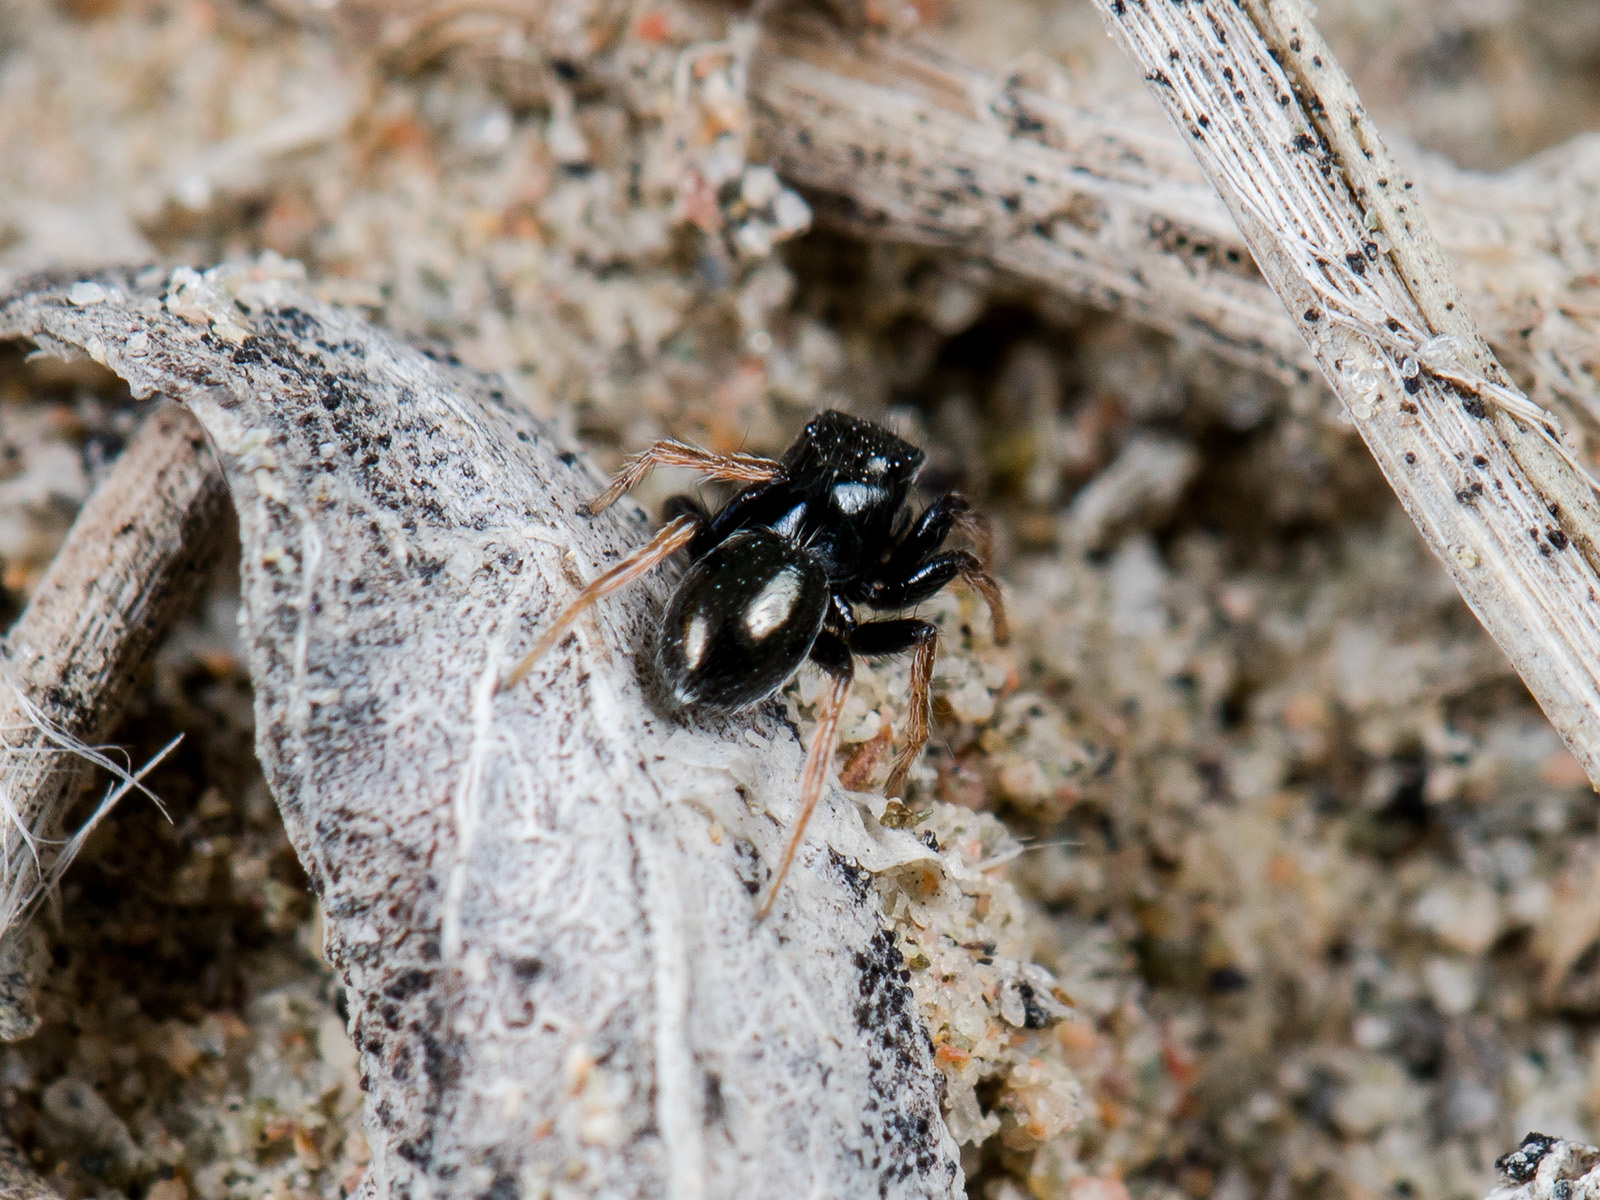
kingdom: Animalia
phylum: Arthropoda
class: Arachnida
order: Araneae
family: Salticidae
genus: Chalcoscirtus
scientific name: Chalcoscirtus karakurt
